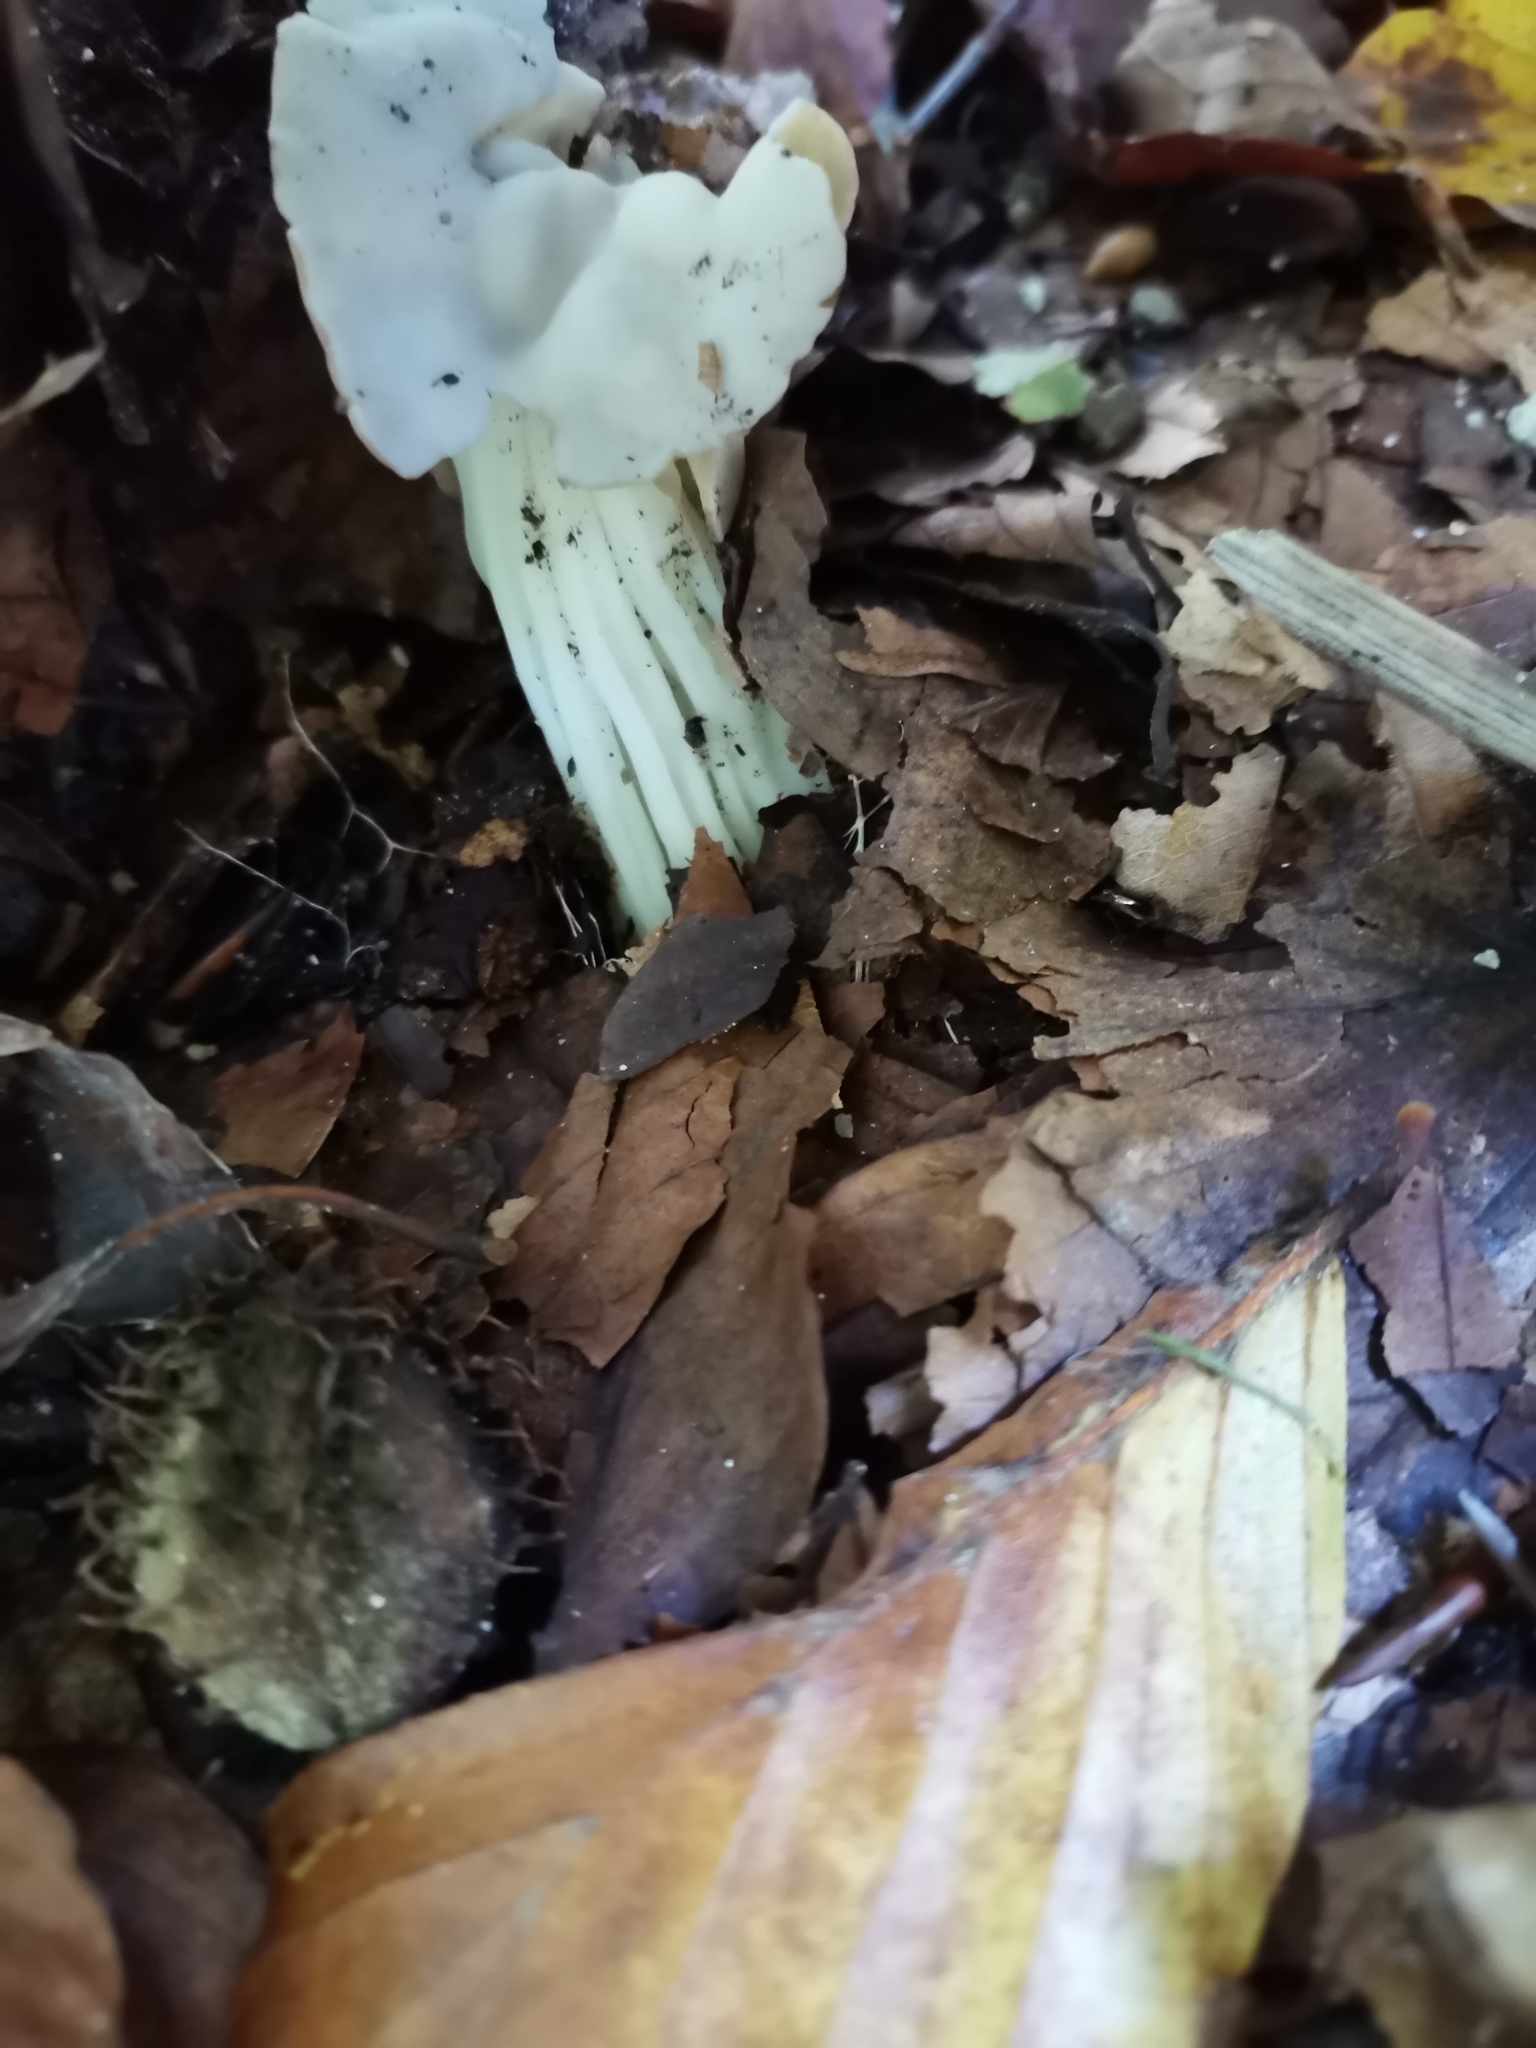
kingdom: Fungi
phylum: Ascomycota
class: Pezizomycetes
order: Pezizales
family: Helvellaceae
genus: Helvella
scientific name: Helvella crispa
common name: White saddle
